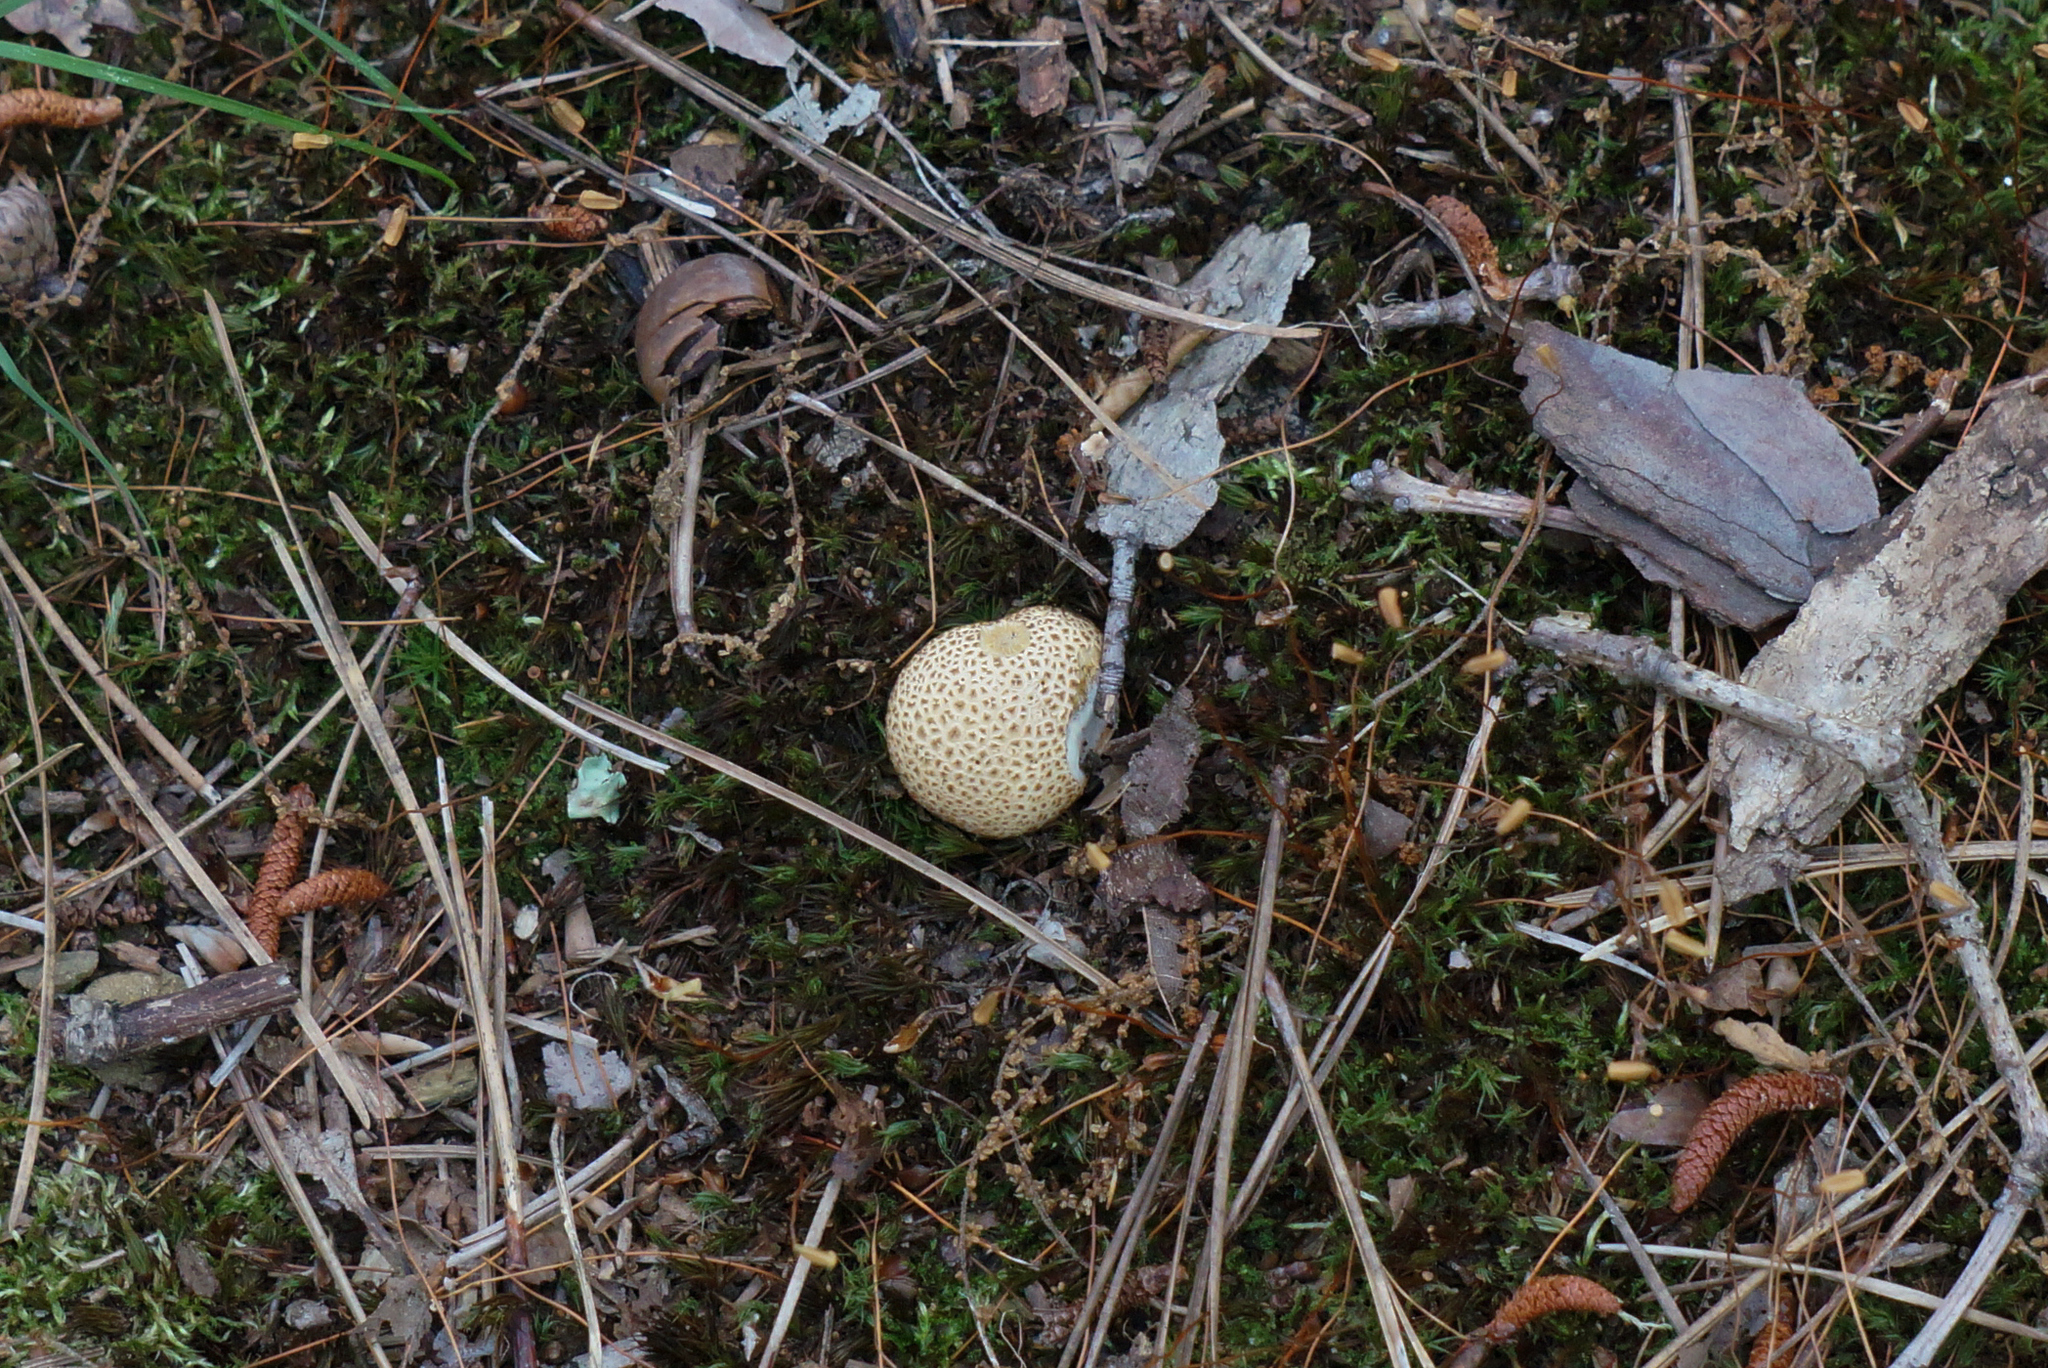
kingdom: Fungi
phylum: Basidiomycota
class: Agaricomycetes
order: Boletales
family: Sclerodermataceae
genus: Scleroderma
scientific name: Scleroderma citrinum
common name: Common earthball
